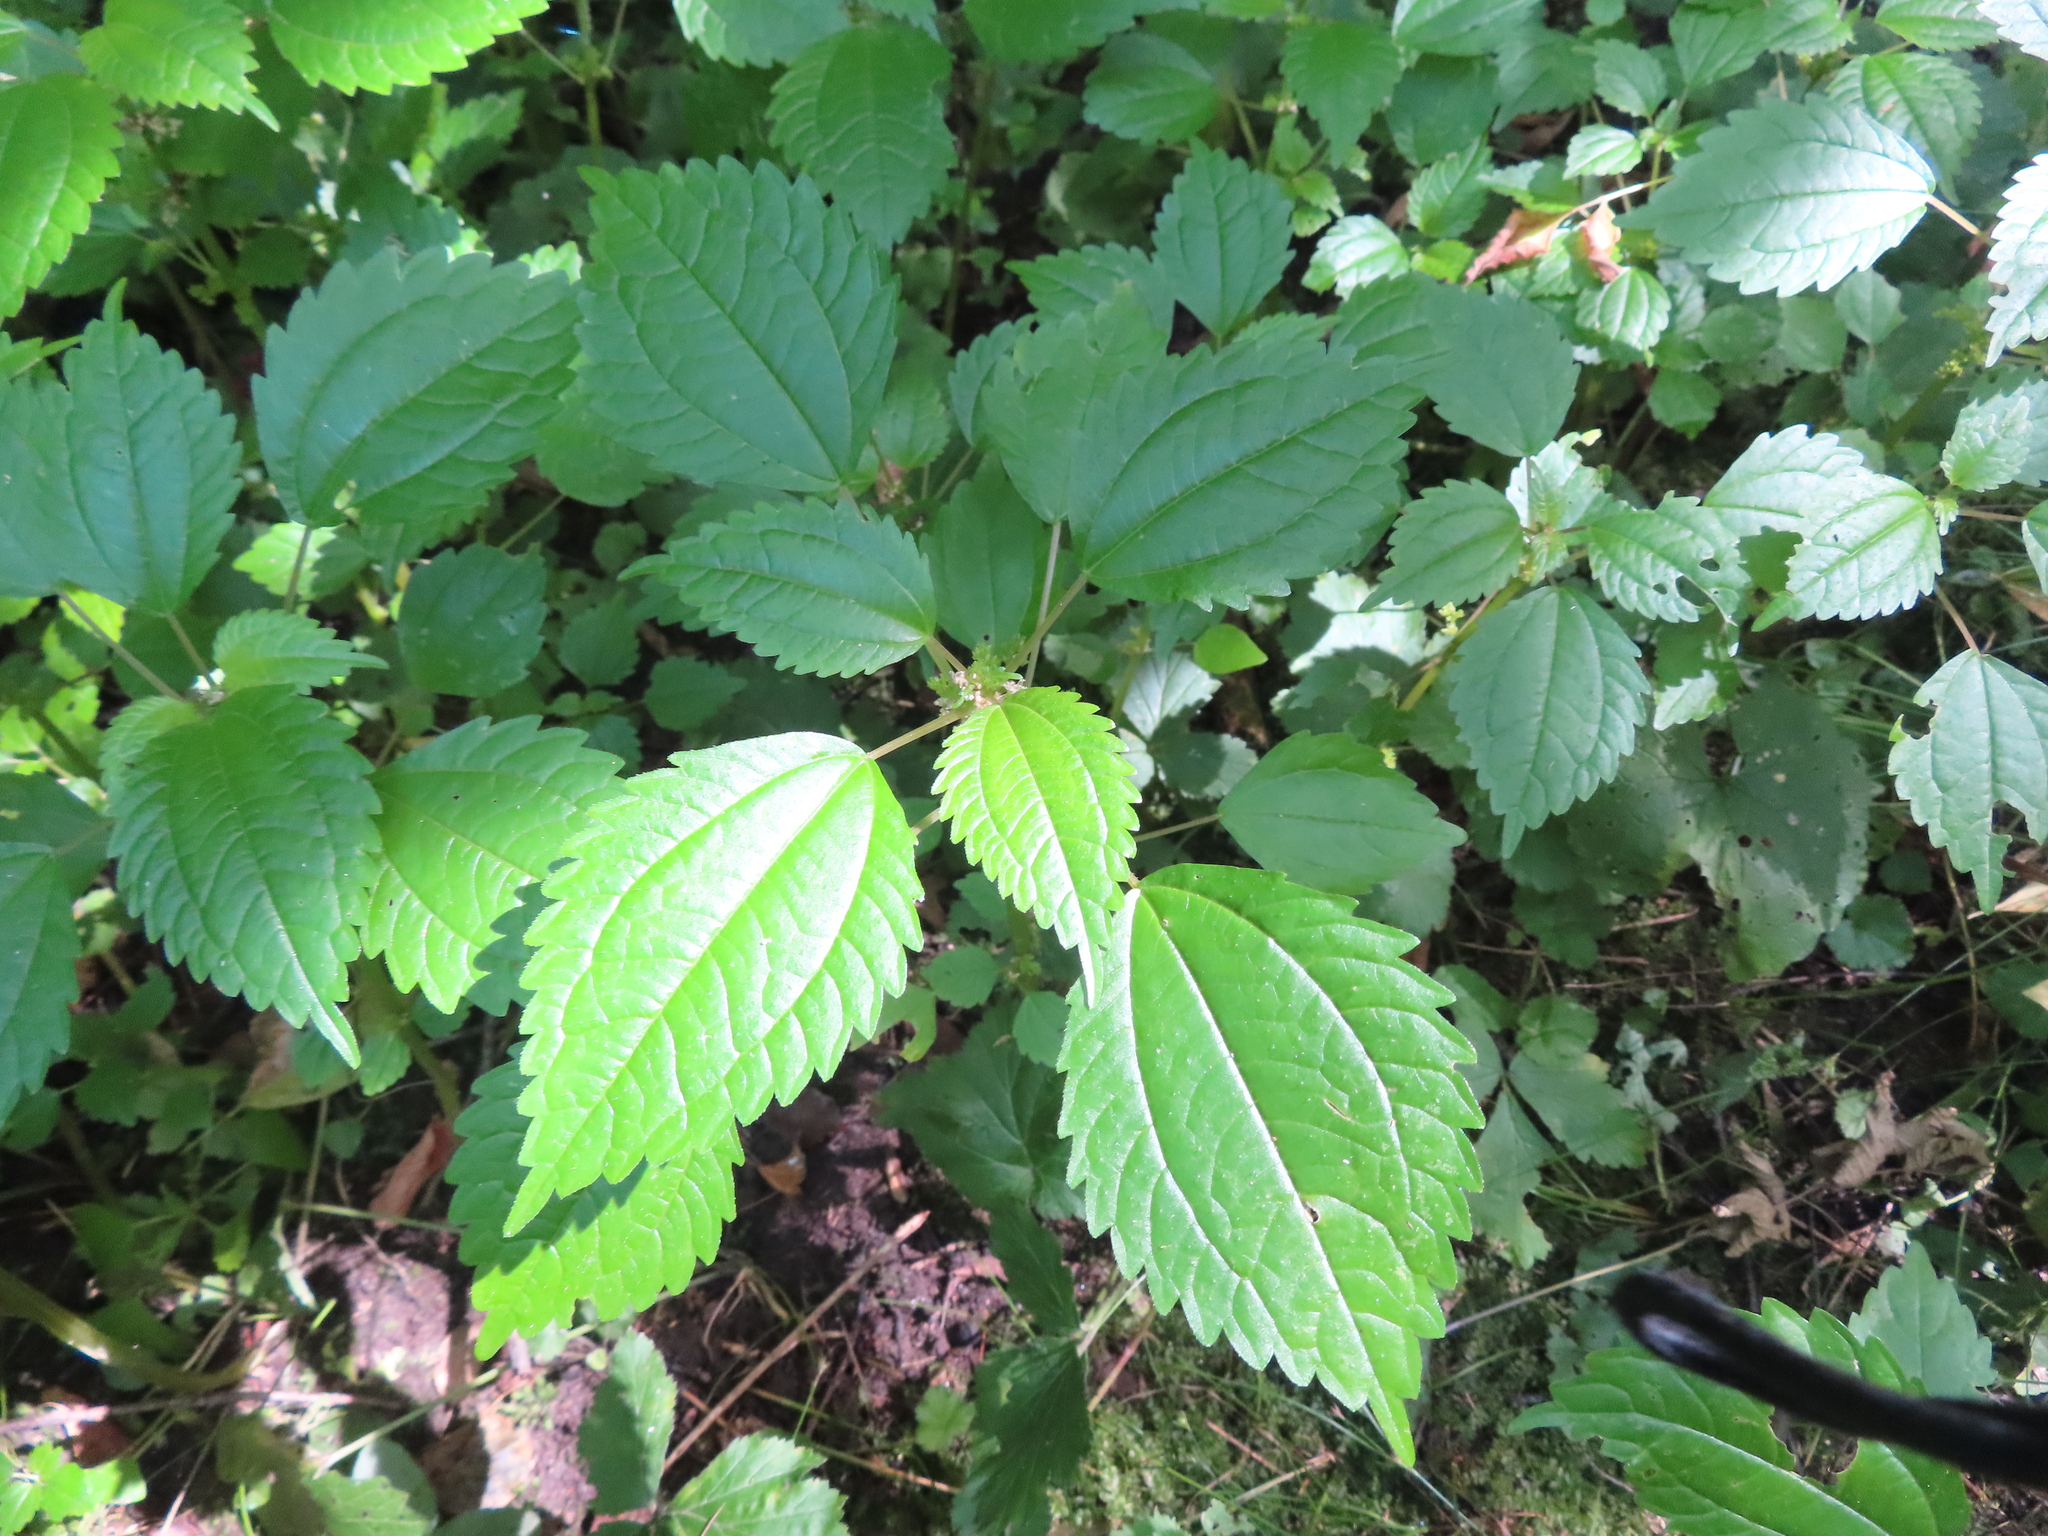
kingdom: Plantae
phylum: Tracheophyta
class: Magnoliopsida
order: Rosales
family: Urticaceae
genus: Pilea
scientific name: Pilea pumila
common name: Clearweed
